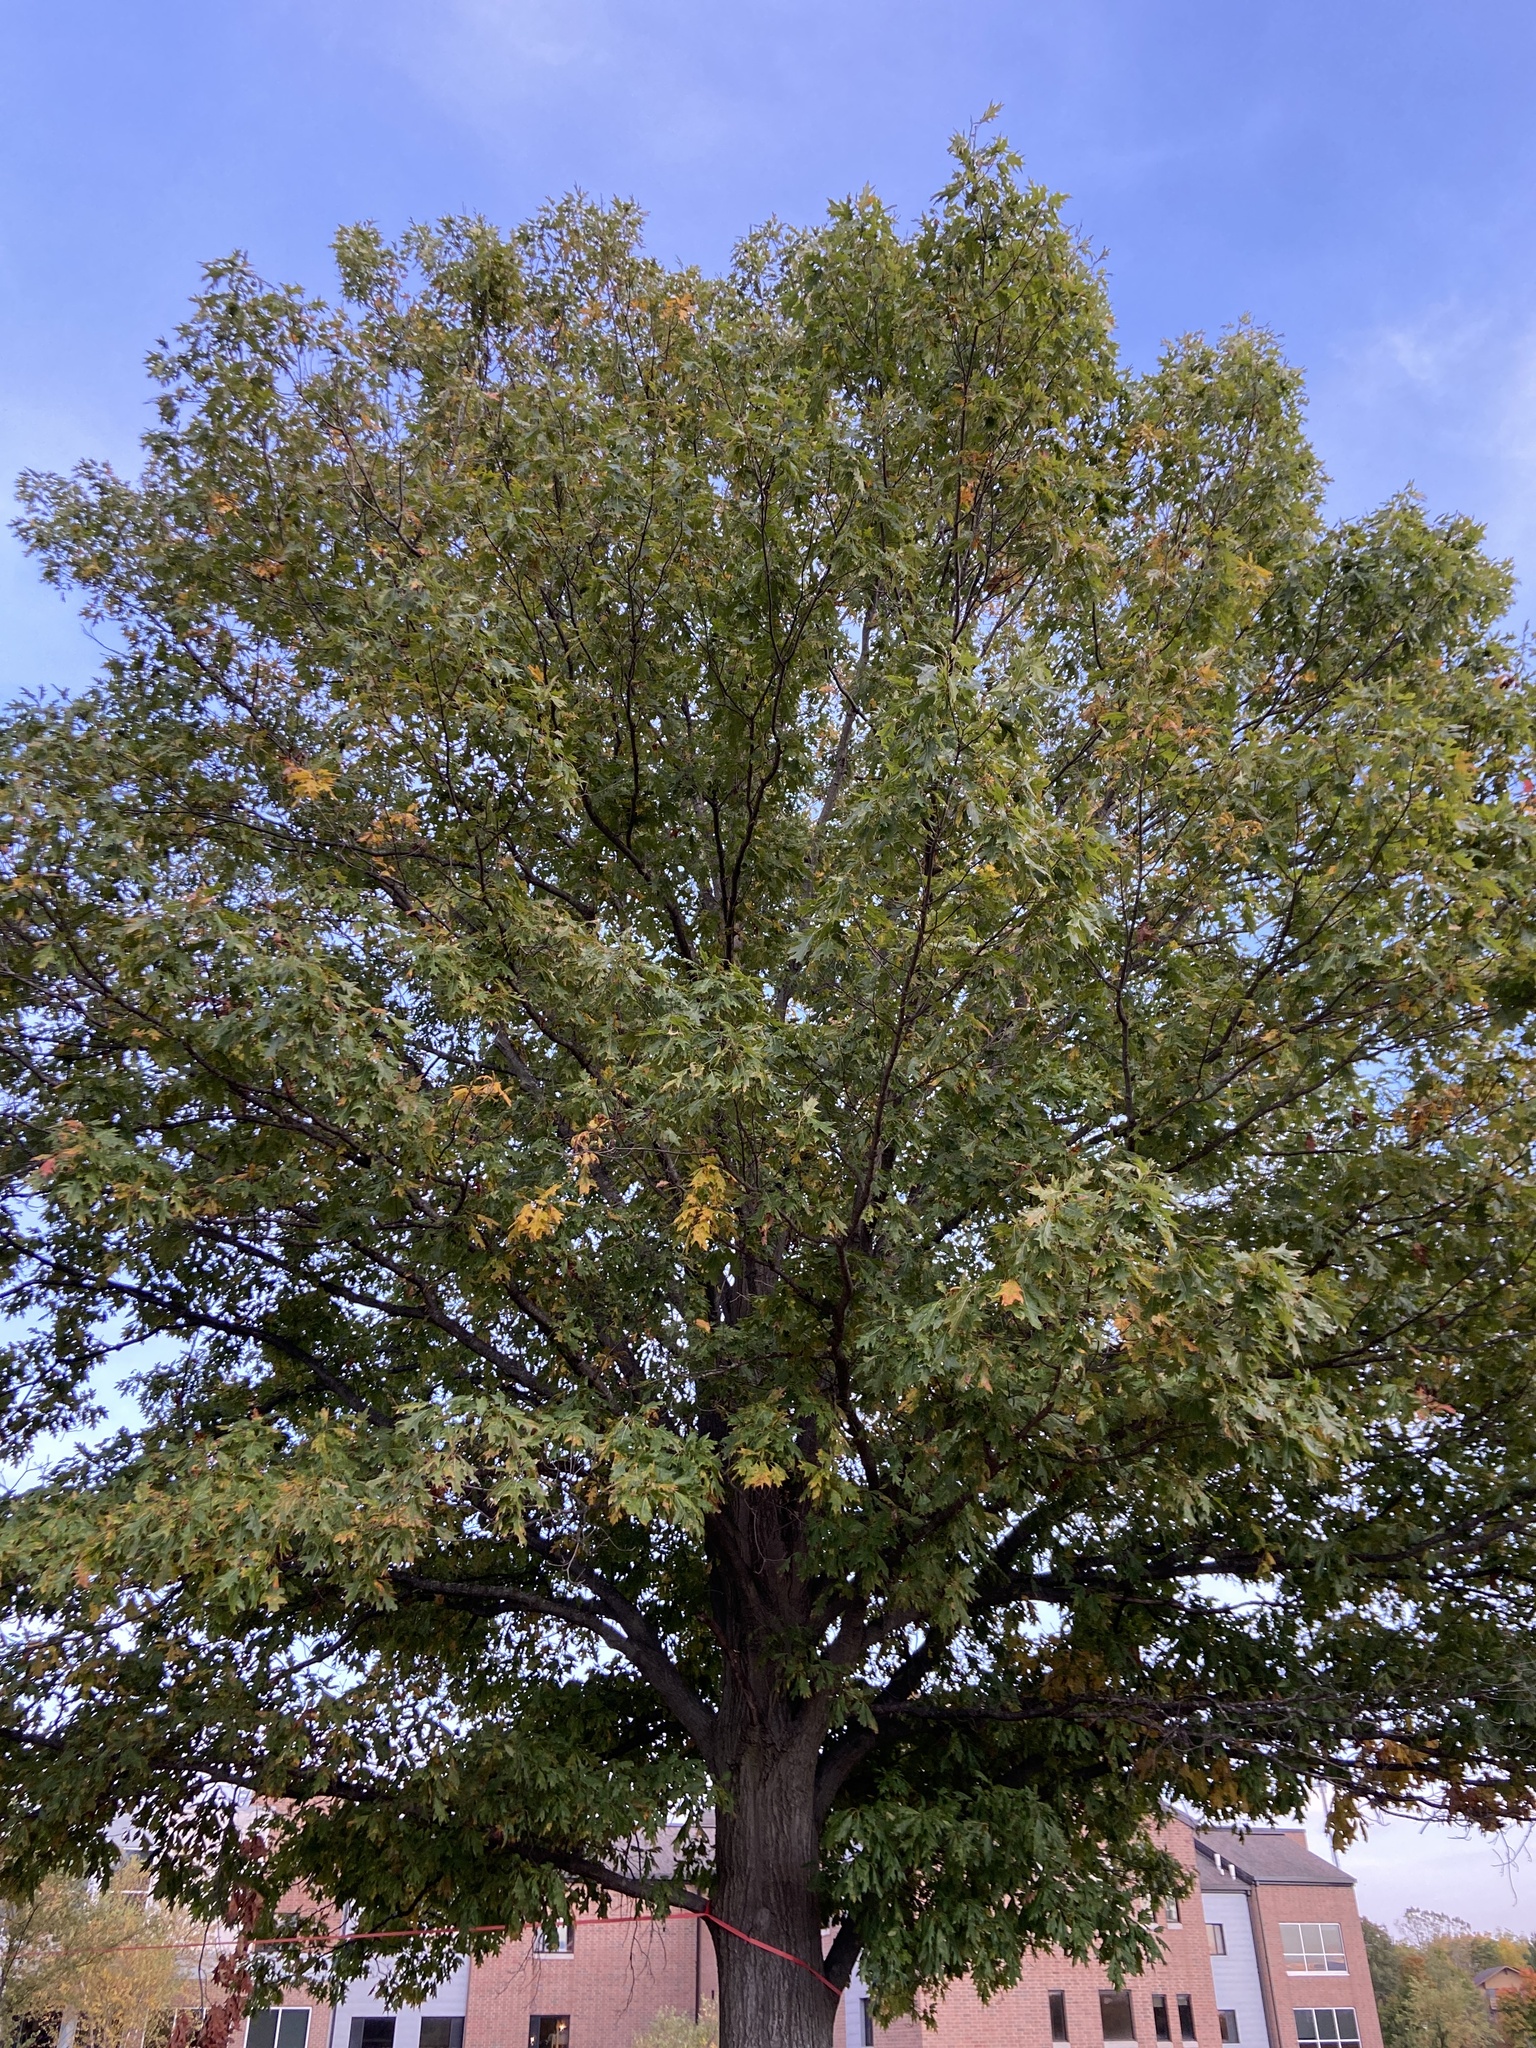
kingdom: Plantae
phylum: Tracheophyta
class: Magnoliopsida
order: Fagales
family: Fagaceae
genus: Quercus
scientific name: Quercus rubra
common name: Red oak
